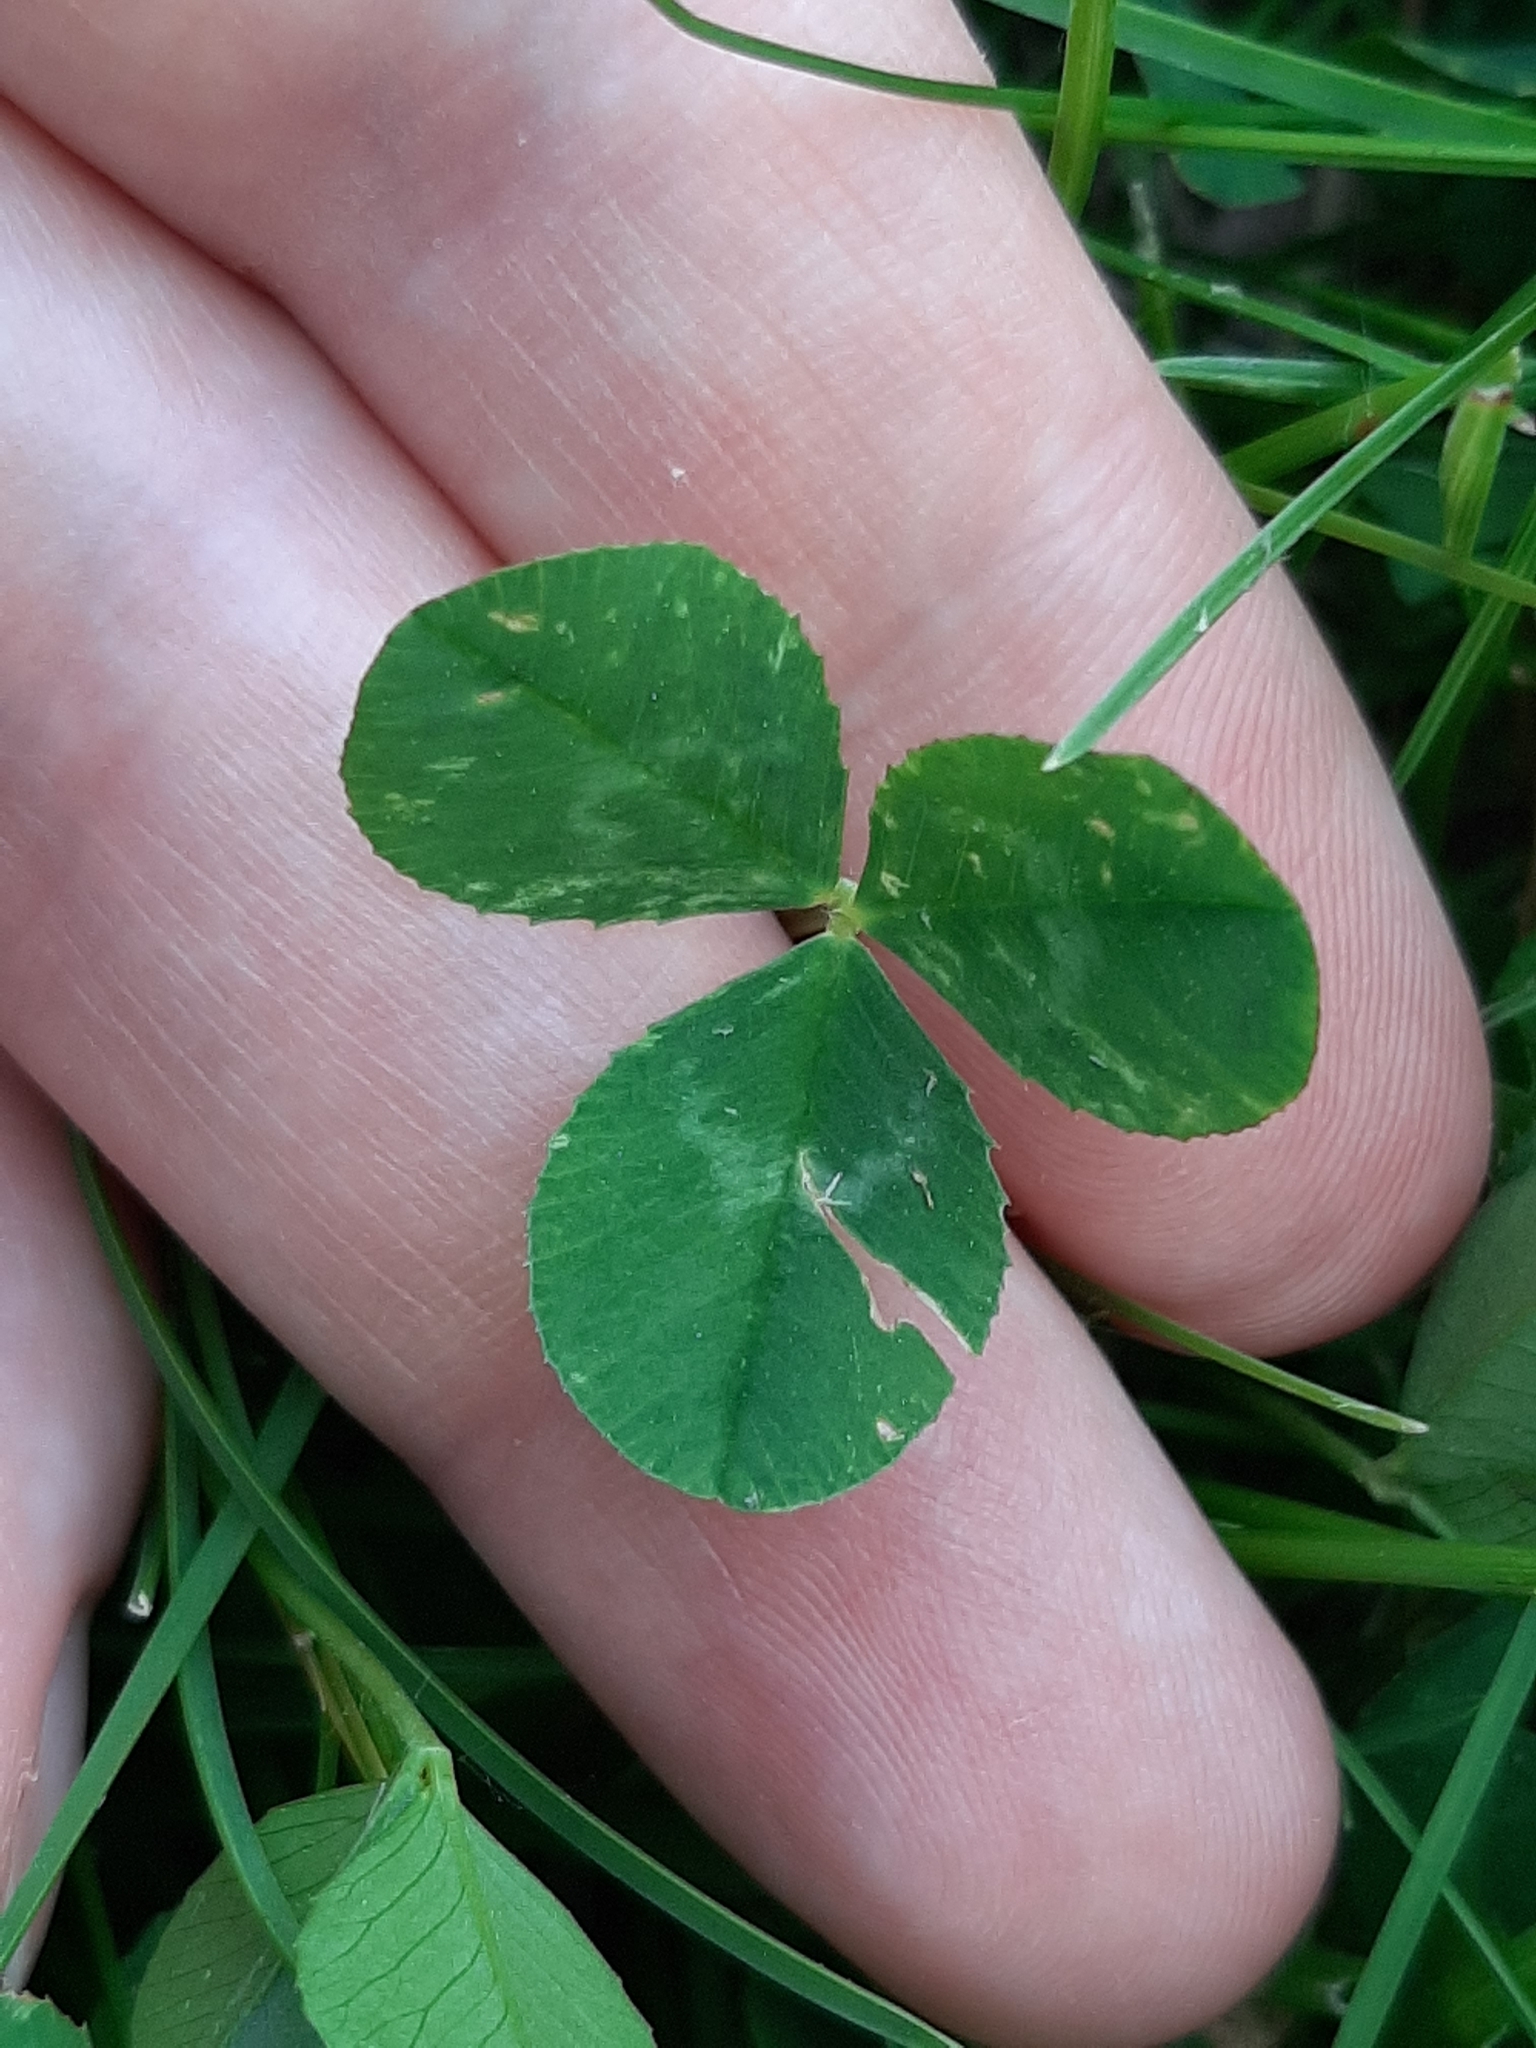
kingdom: Plantae
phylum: Tracheophyta
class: Magnoliopsida
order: Fabales
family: Fabaceae
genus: Trifolium
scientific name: Trifolium repens
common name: White clover
